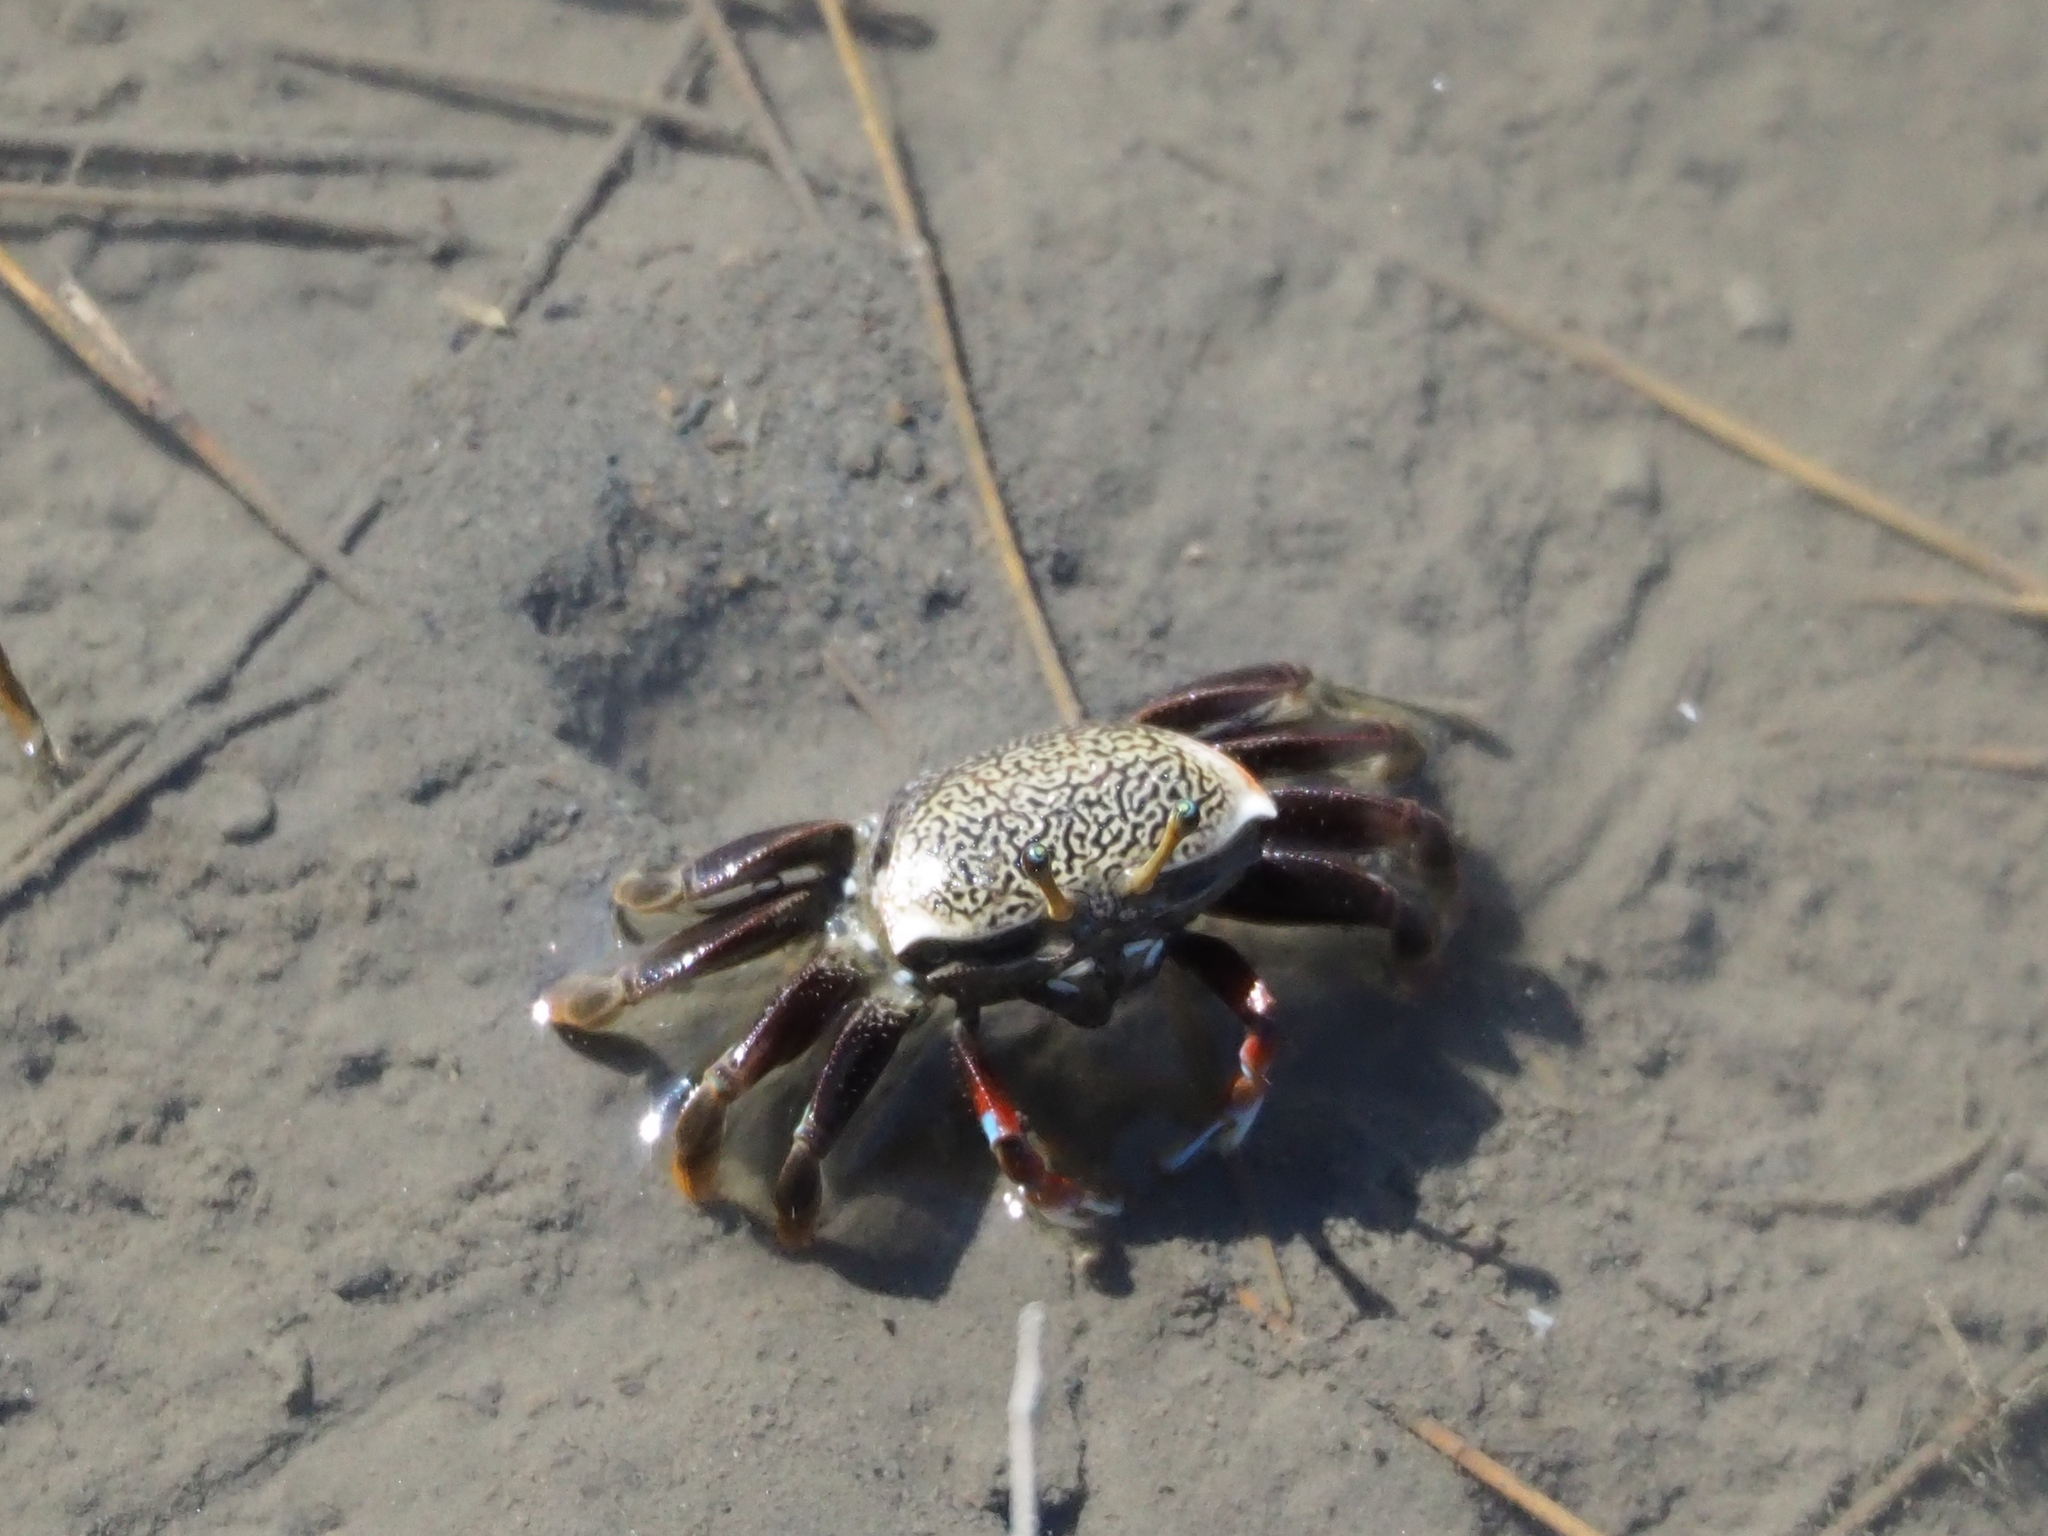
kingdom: Animalia
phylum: Arthropoda
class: Malacostraca
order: Decapoda
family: Ocypodidae
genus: Tubuca
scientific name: Tubuca arcuata
